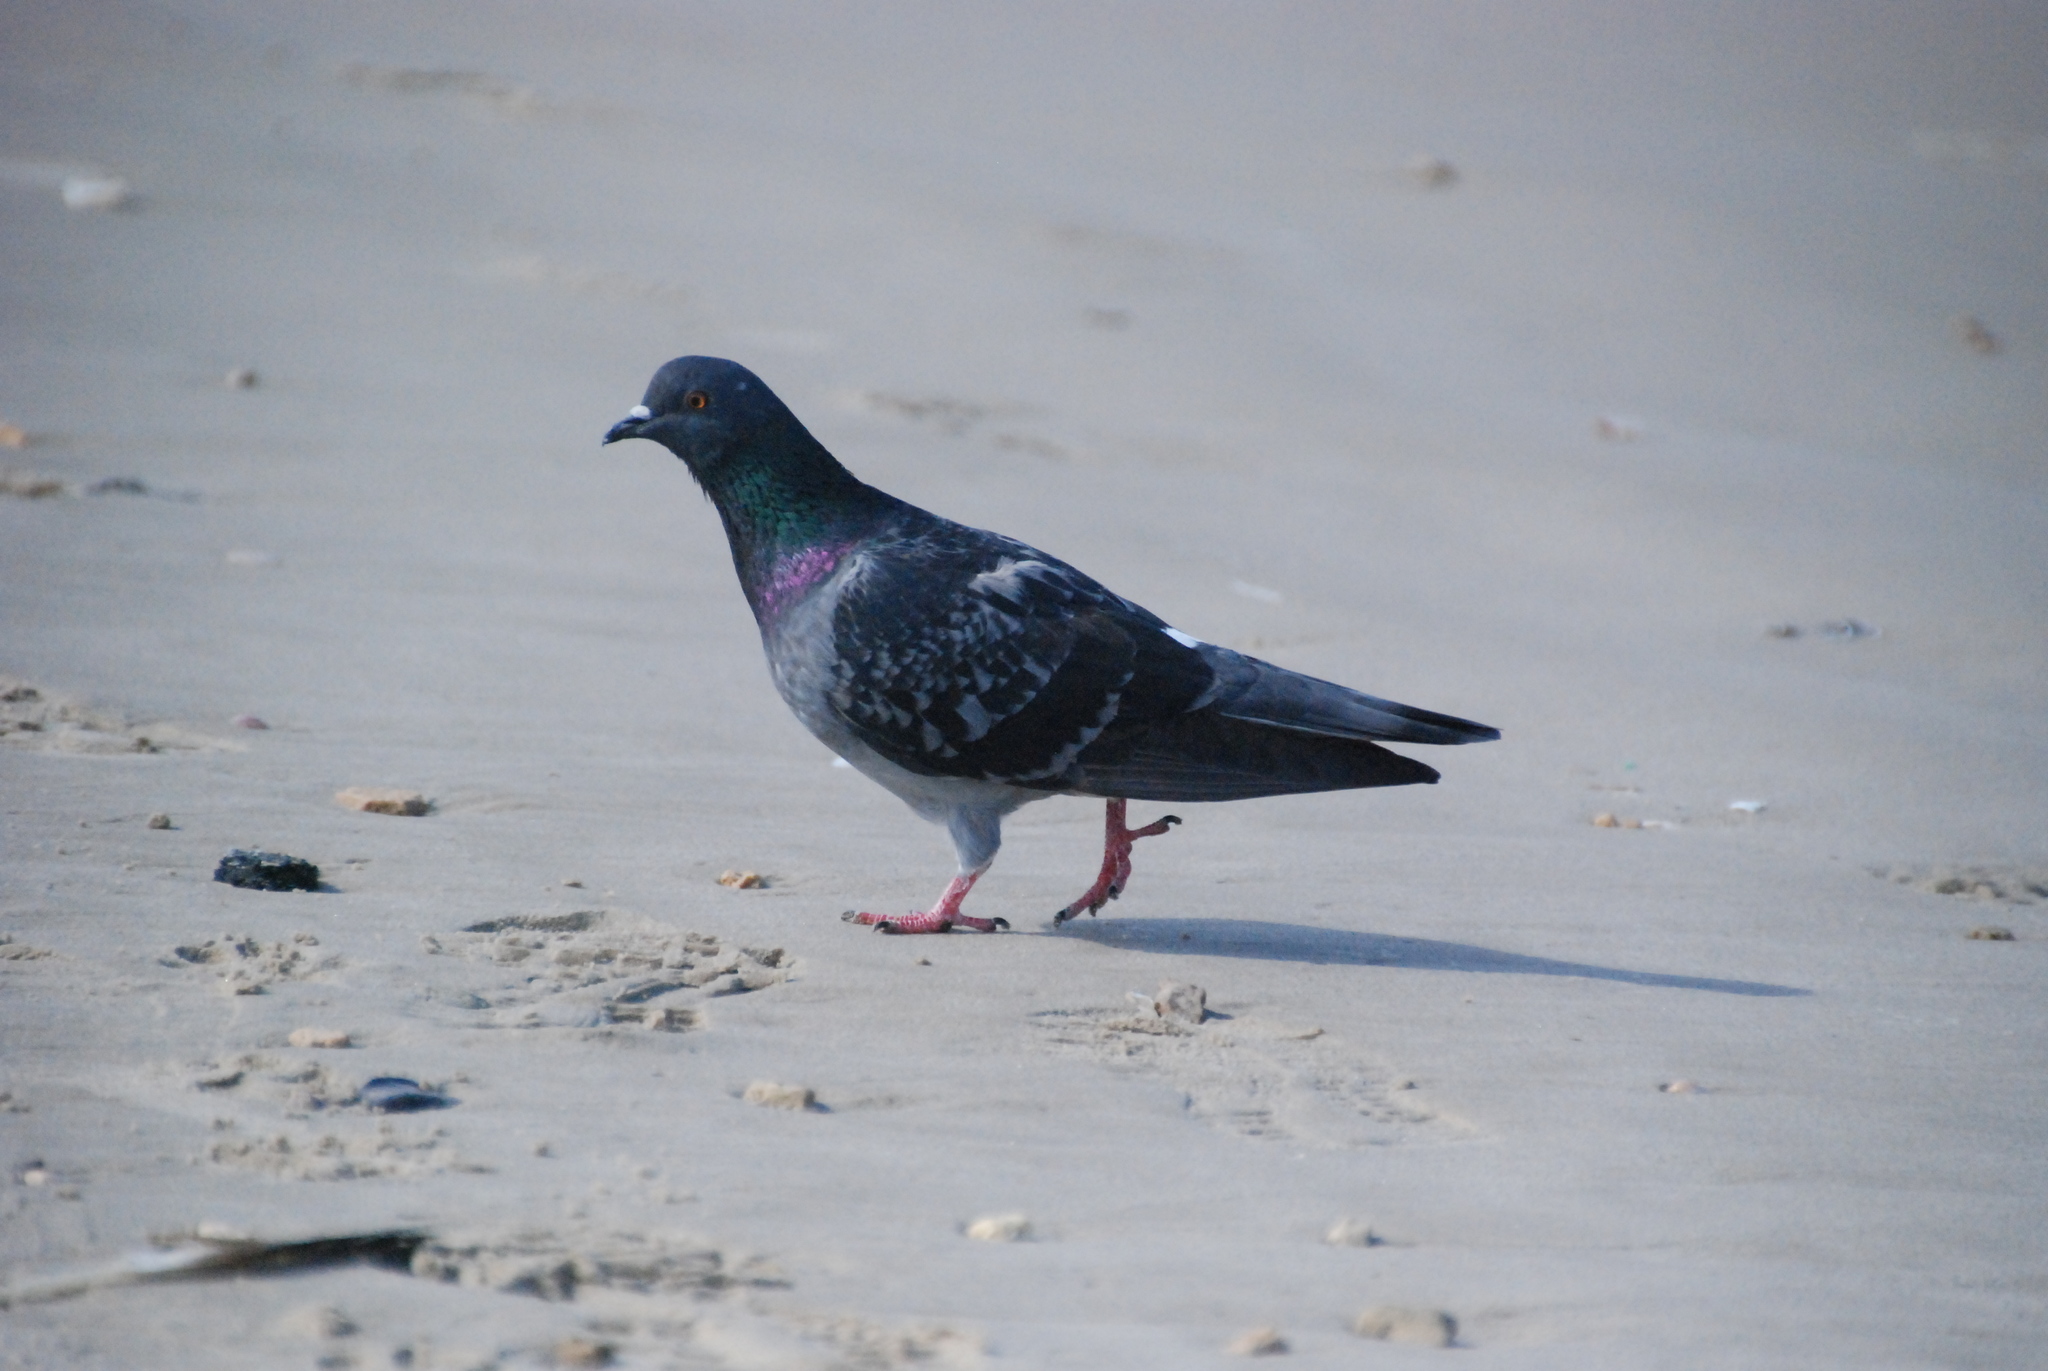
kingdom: Animalia
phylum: Chordata
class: Aves
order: Columbiformes
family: Columbidae
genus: Columba
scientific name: Columba livia
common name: Rock pigeon
